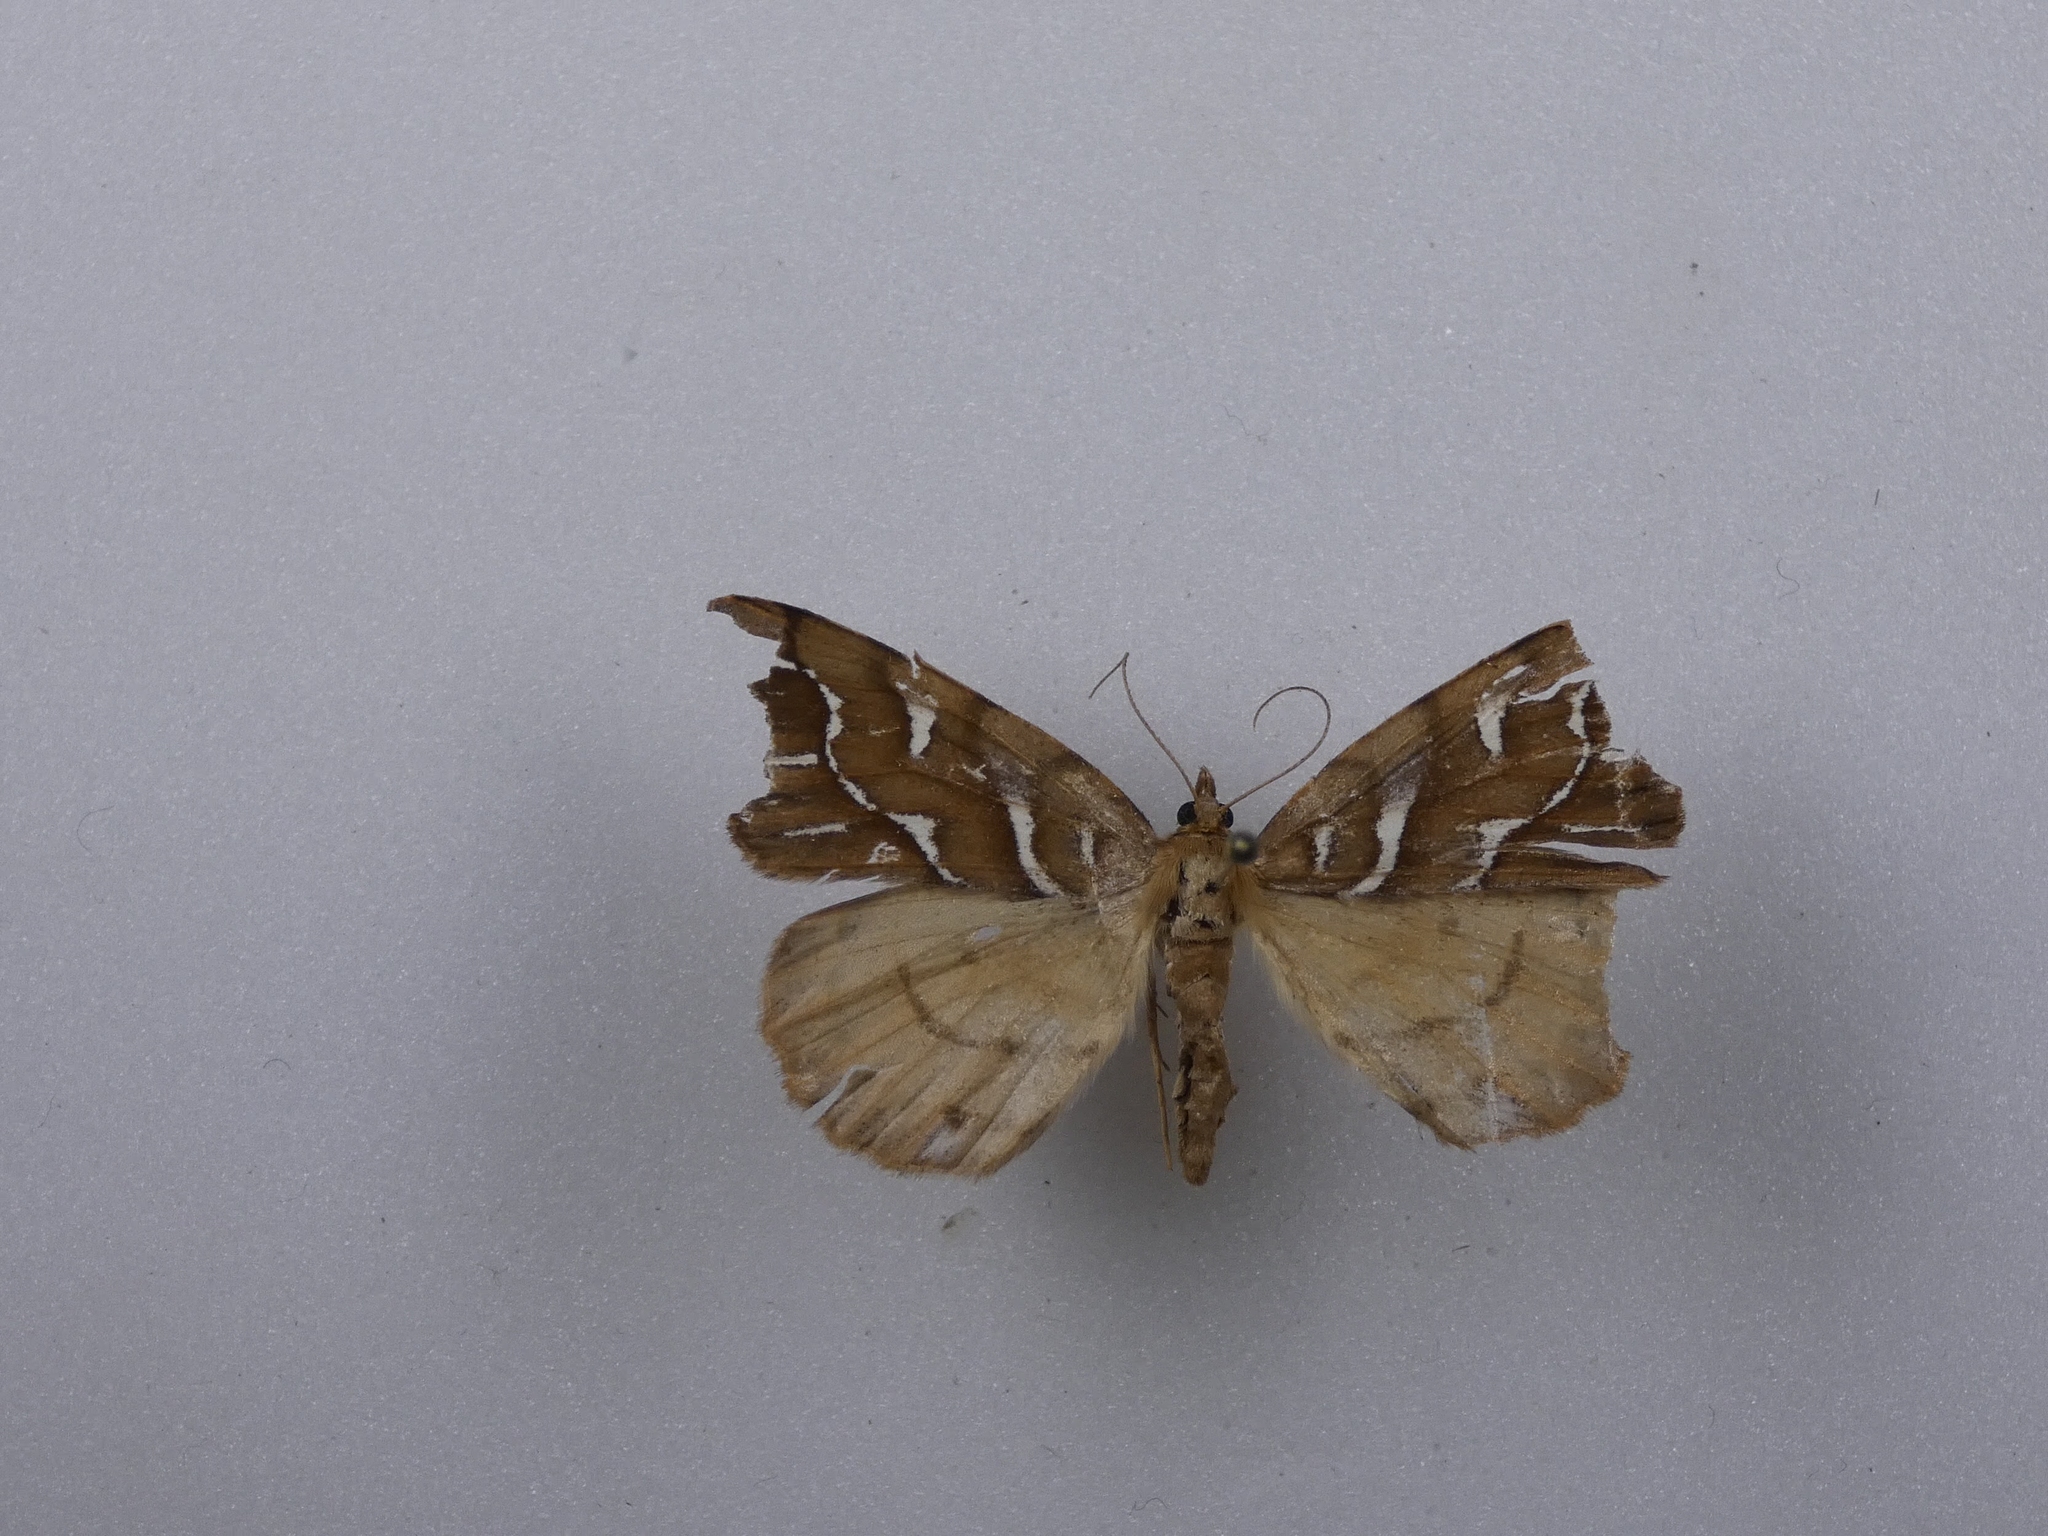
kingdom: Animalia
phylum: Arthropoda
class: Insecta
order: Lepidoptera
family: Geometridae
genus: Chalastra
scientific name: Chalastra aristarcha
